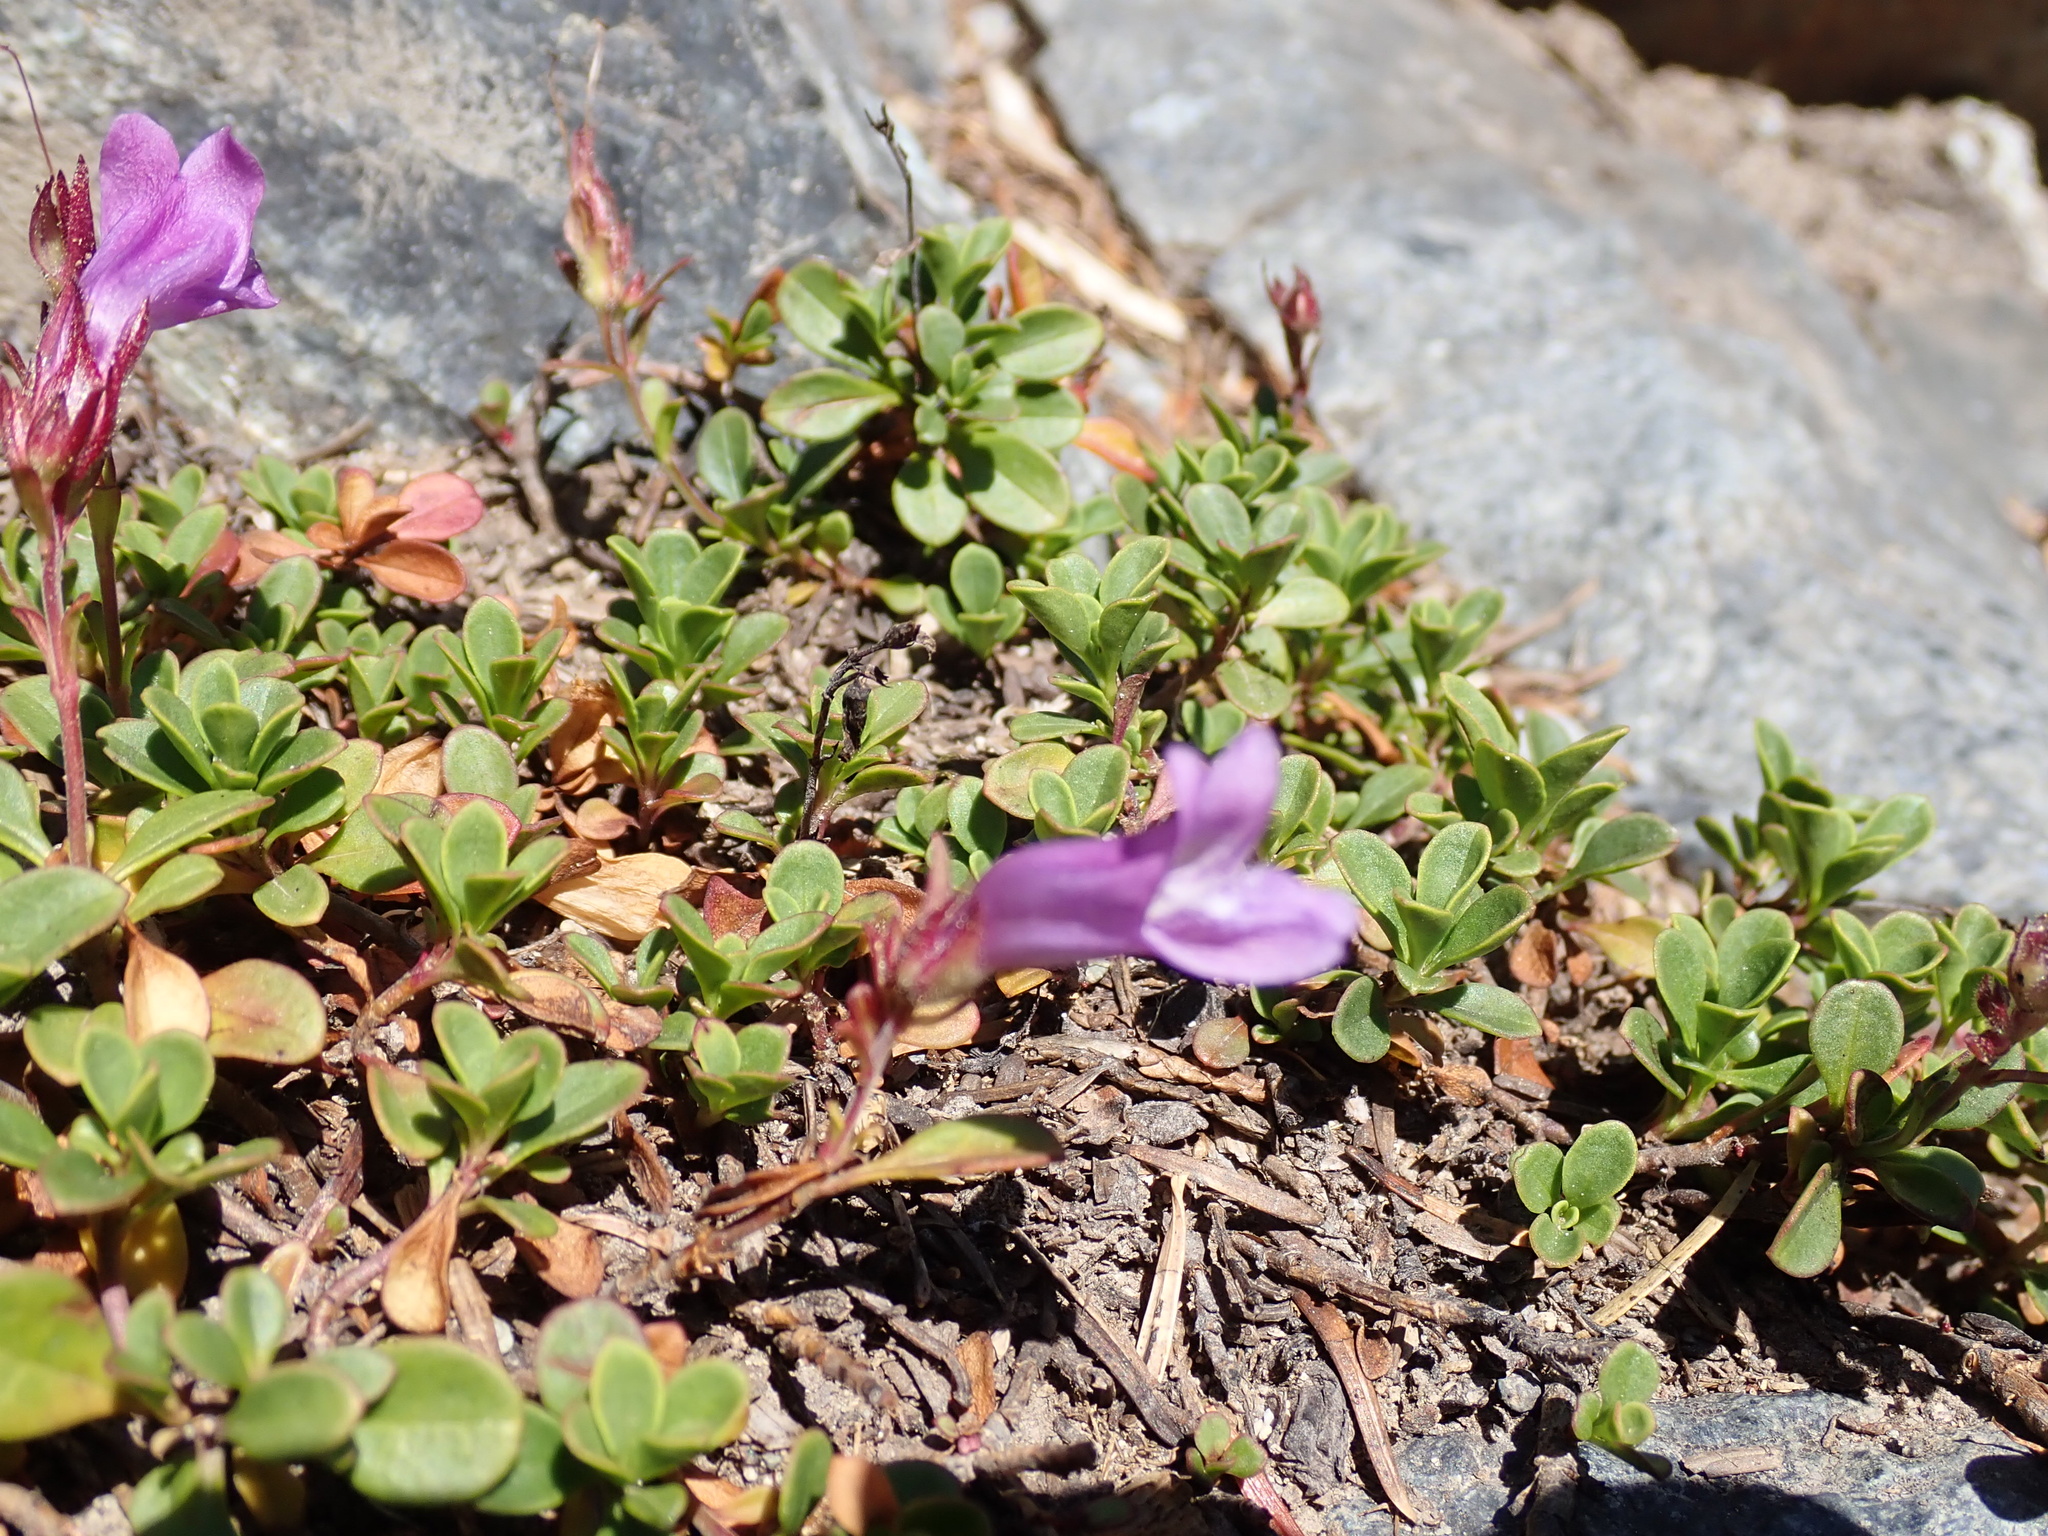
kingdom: Plantae
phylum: Tracheophyta
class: Magnoliopsida
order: Lamiales
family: Plantaginaceae
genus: Penstemon
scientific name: Penstemon davidsonii
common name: Davidson's penstemon
